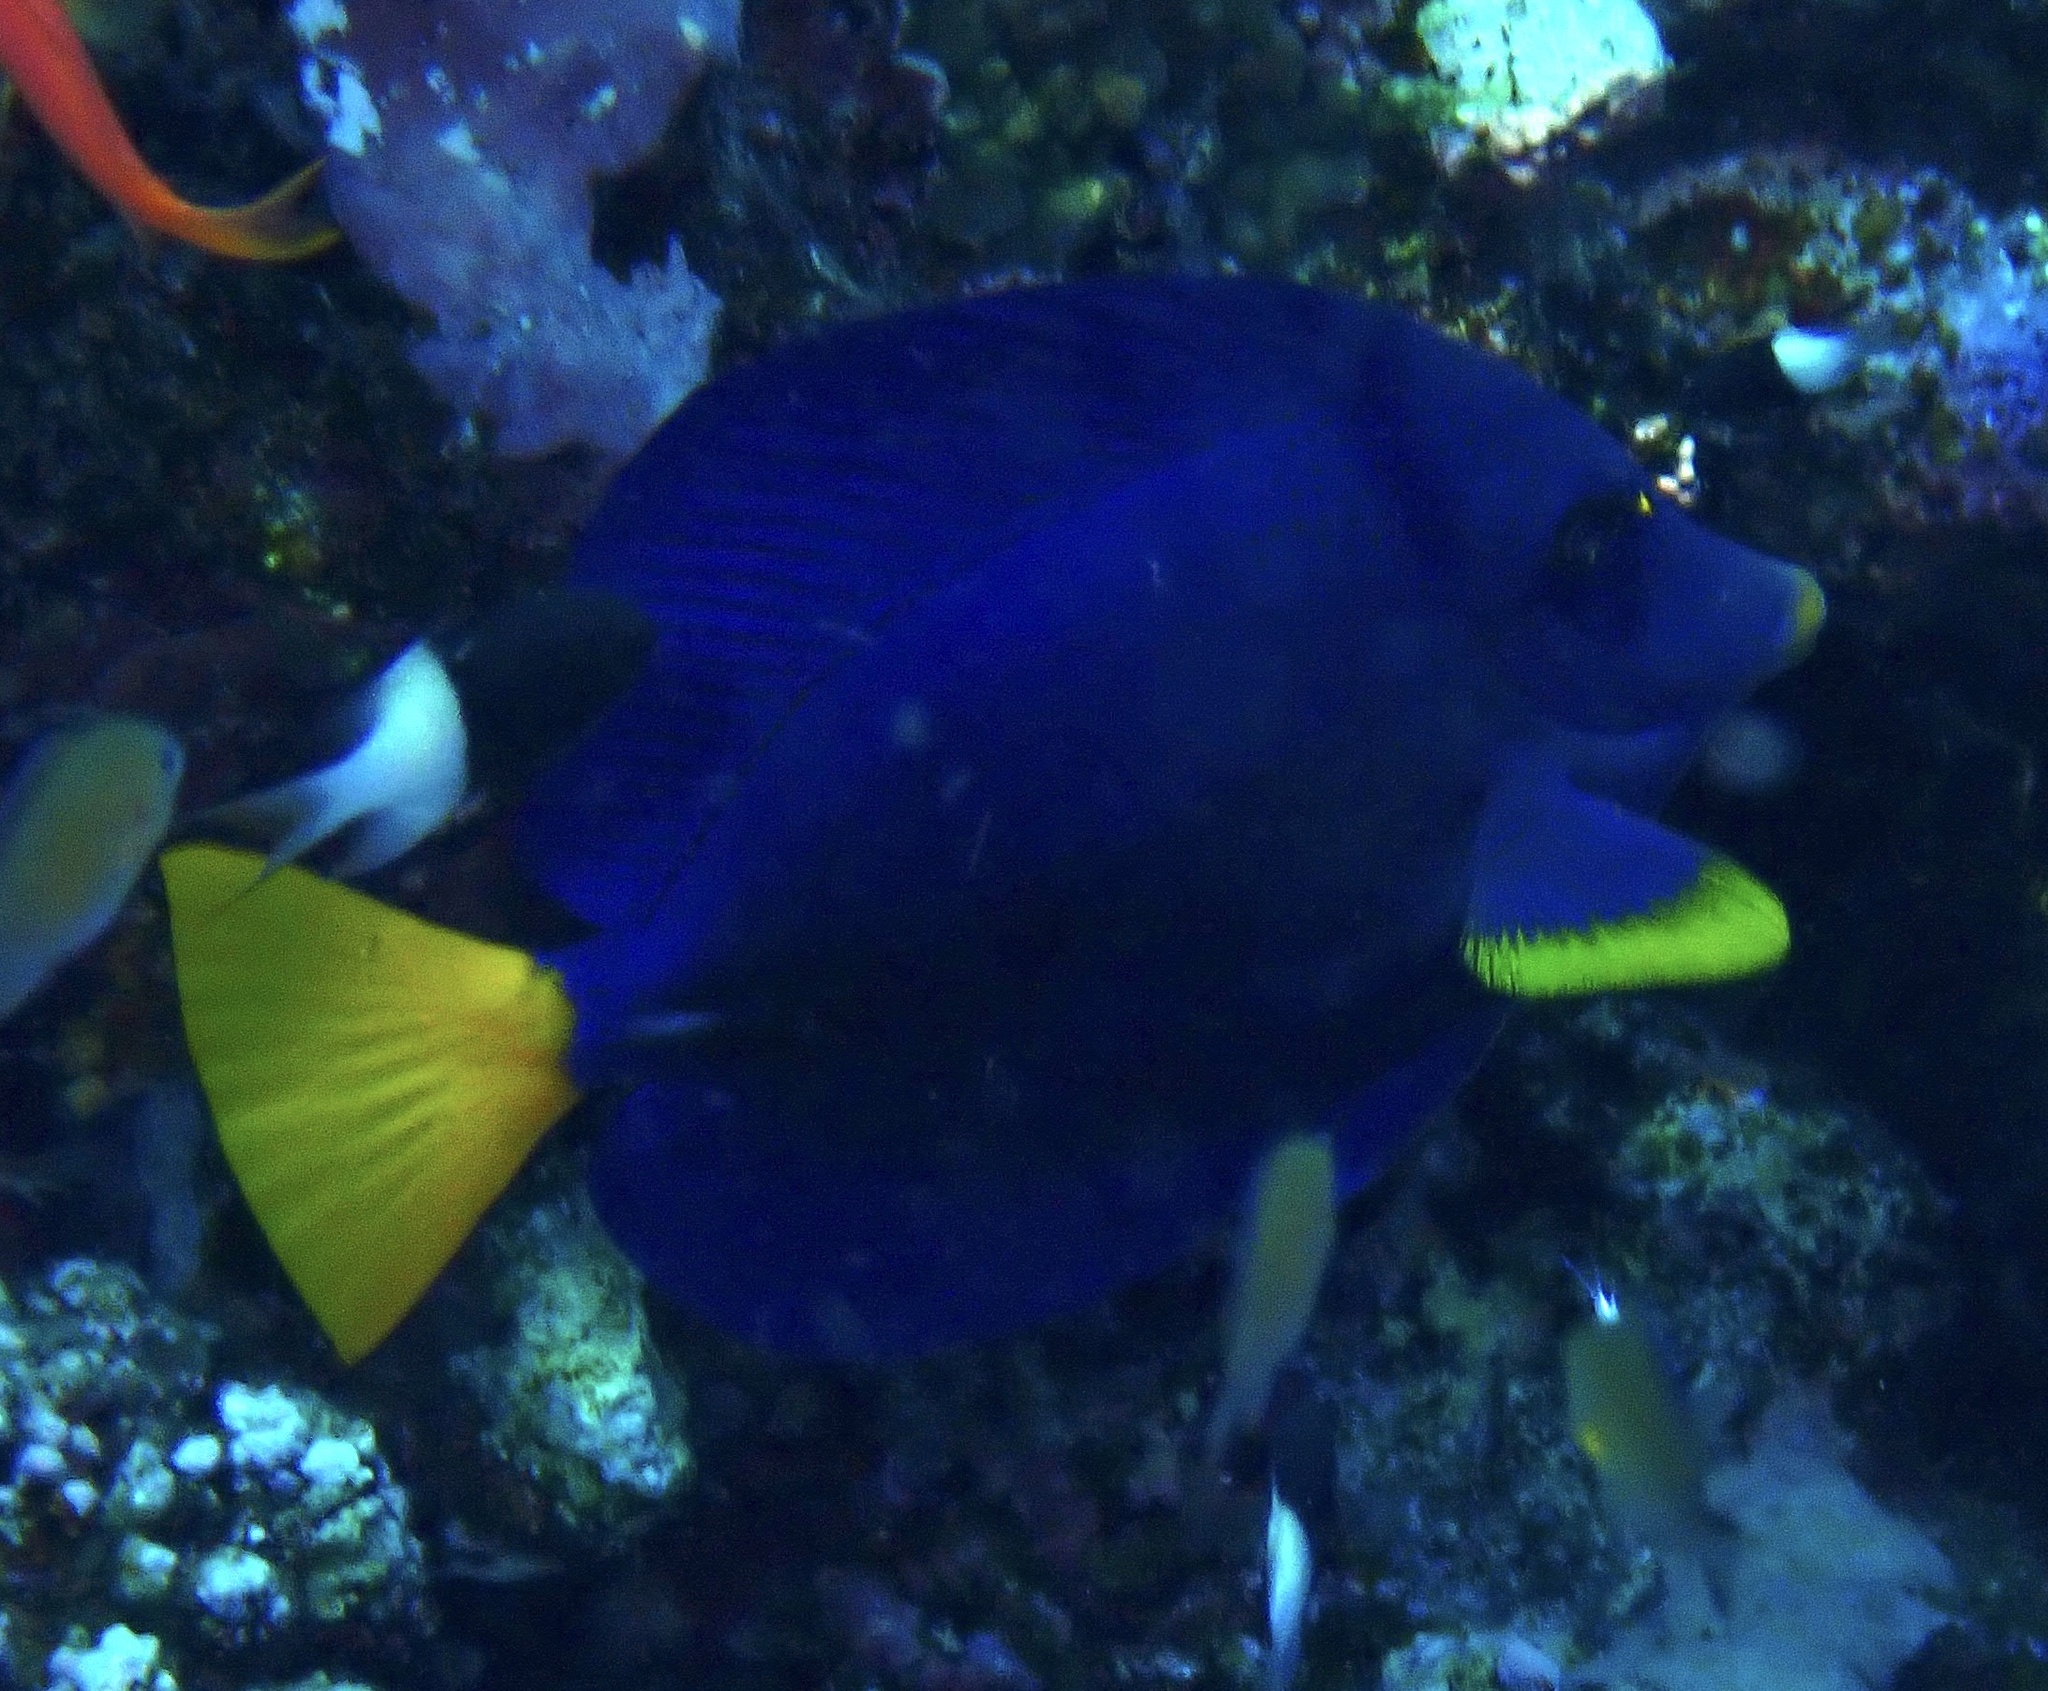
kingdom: Animalia
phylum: Chordata
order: Perciformes
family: Acanthuridae
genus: Zebrasoma
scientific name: Zebrasoma xanthurum
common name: Purple tang
